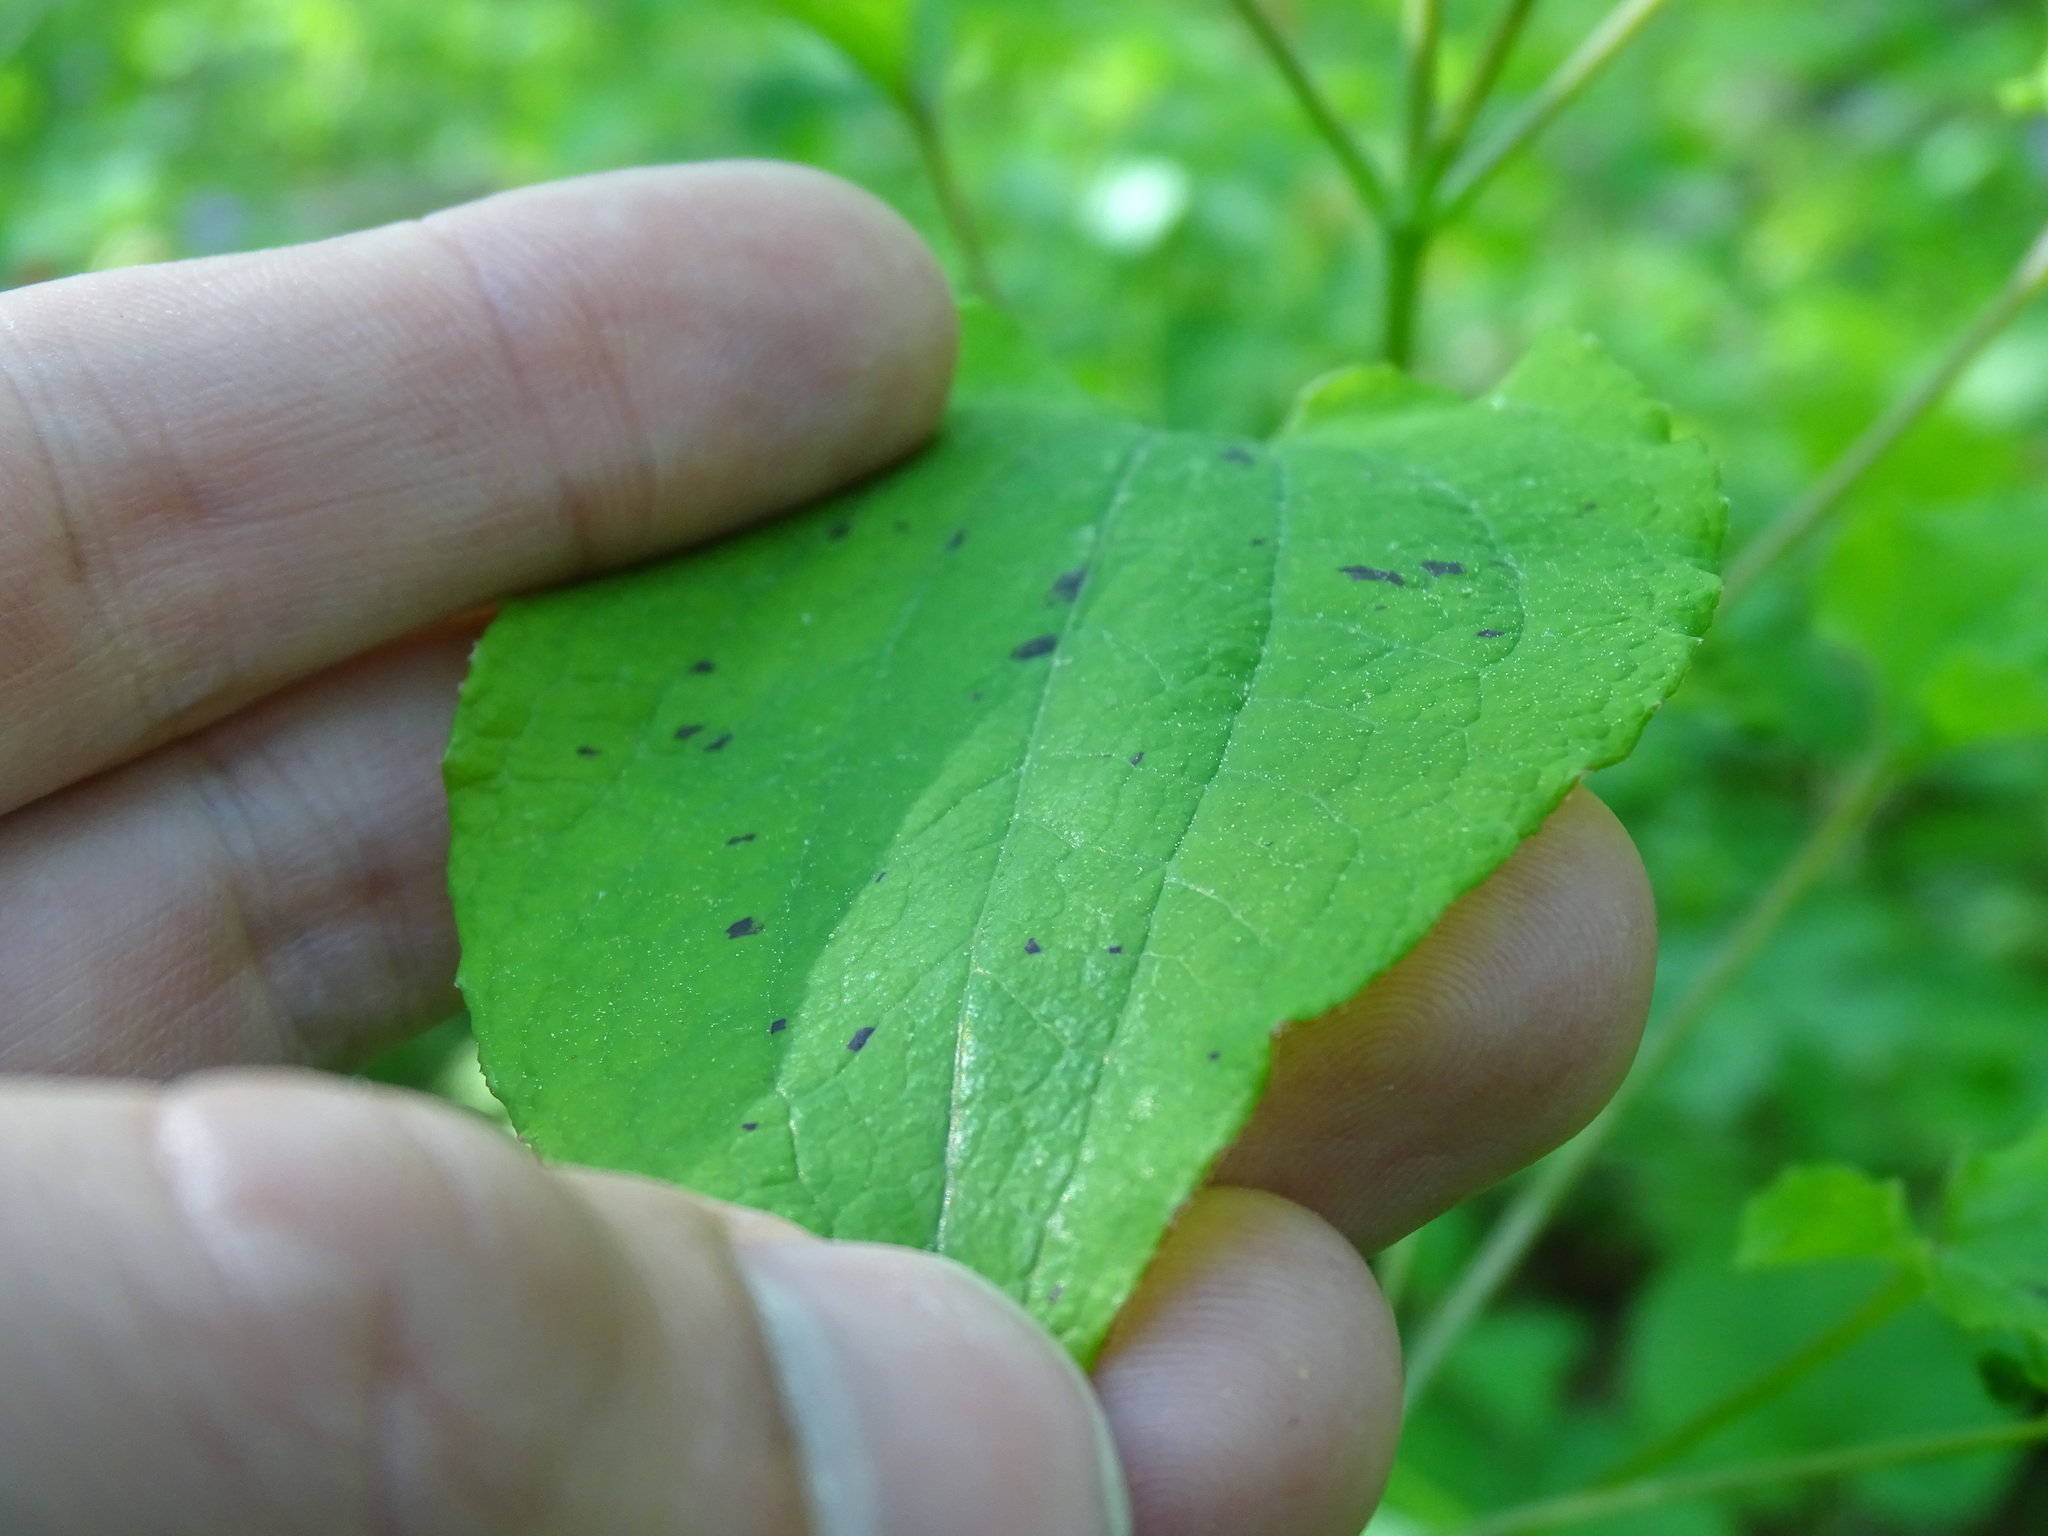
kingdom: Plantae
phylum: Tracheophyta
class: Liliopsida
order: Liliales
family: Smilacaceae
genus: Smilax
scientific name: Smilax illinoensis
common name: Illinois carrionflower
